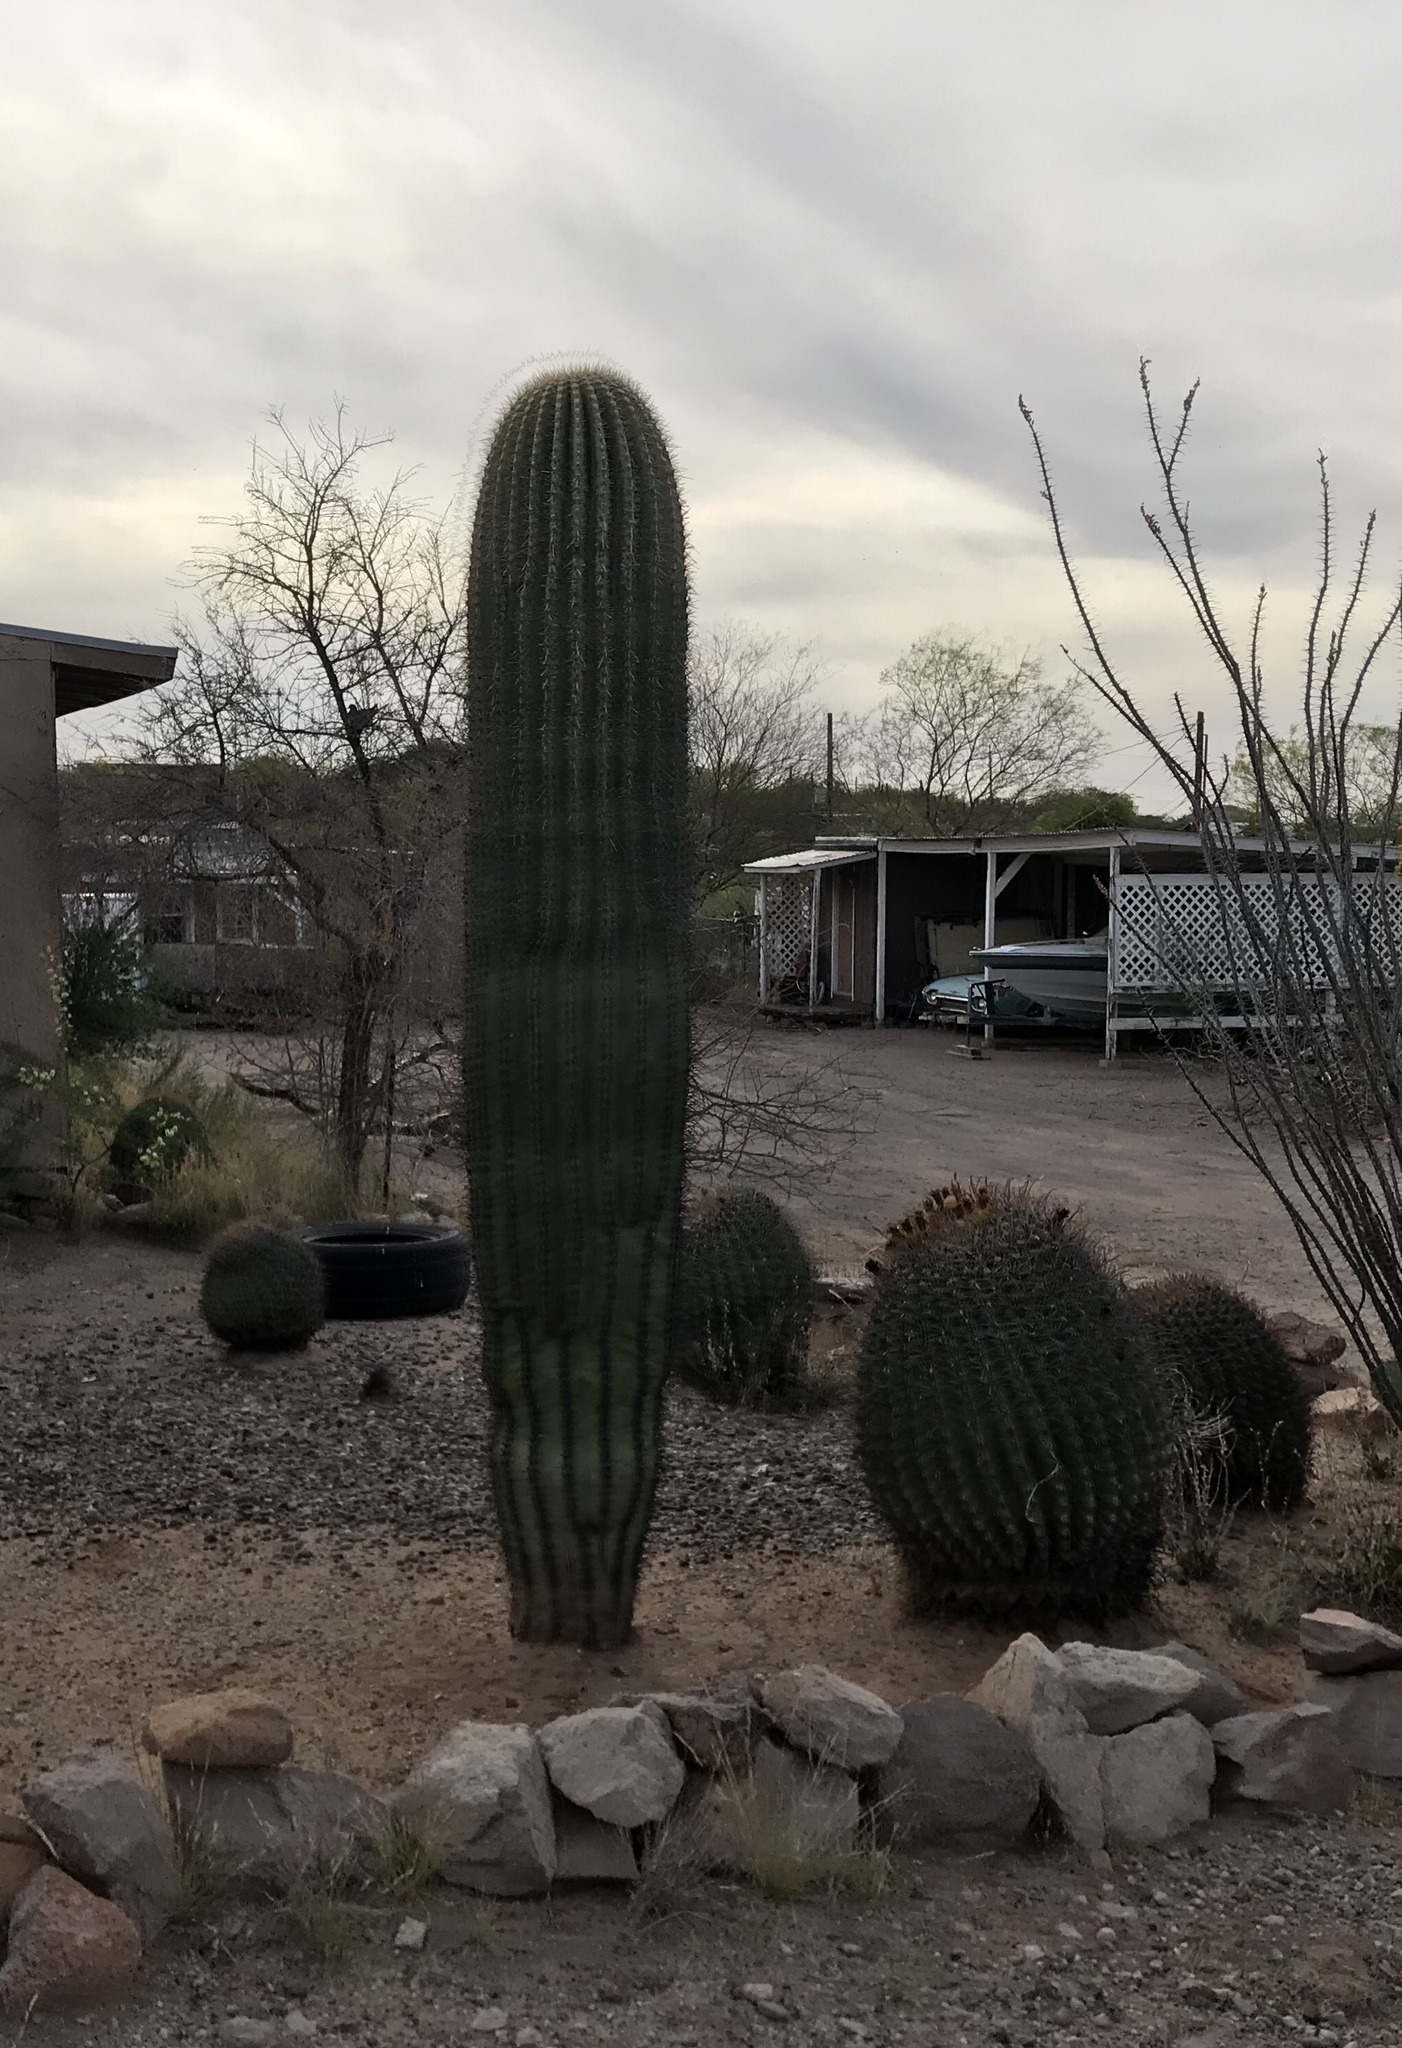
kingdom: Plantae
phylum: Tracheophyta
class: Magnoliopsida
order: Caryophyllales
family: Cactaceae
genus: Carnegiea
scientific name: Carnegiea gigantea
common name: Saguaro
